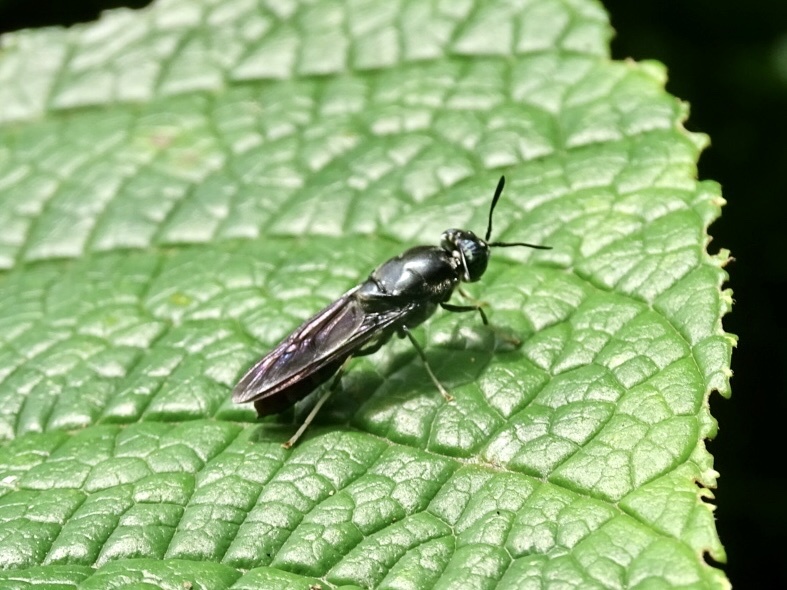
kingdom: Animalia
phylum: Arthropoda
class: Insecta
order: Diptera
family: Stratiomyidae
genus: Hermetia
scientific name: Hermetia illucens
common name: Black soldier fly
